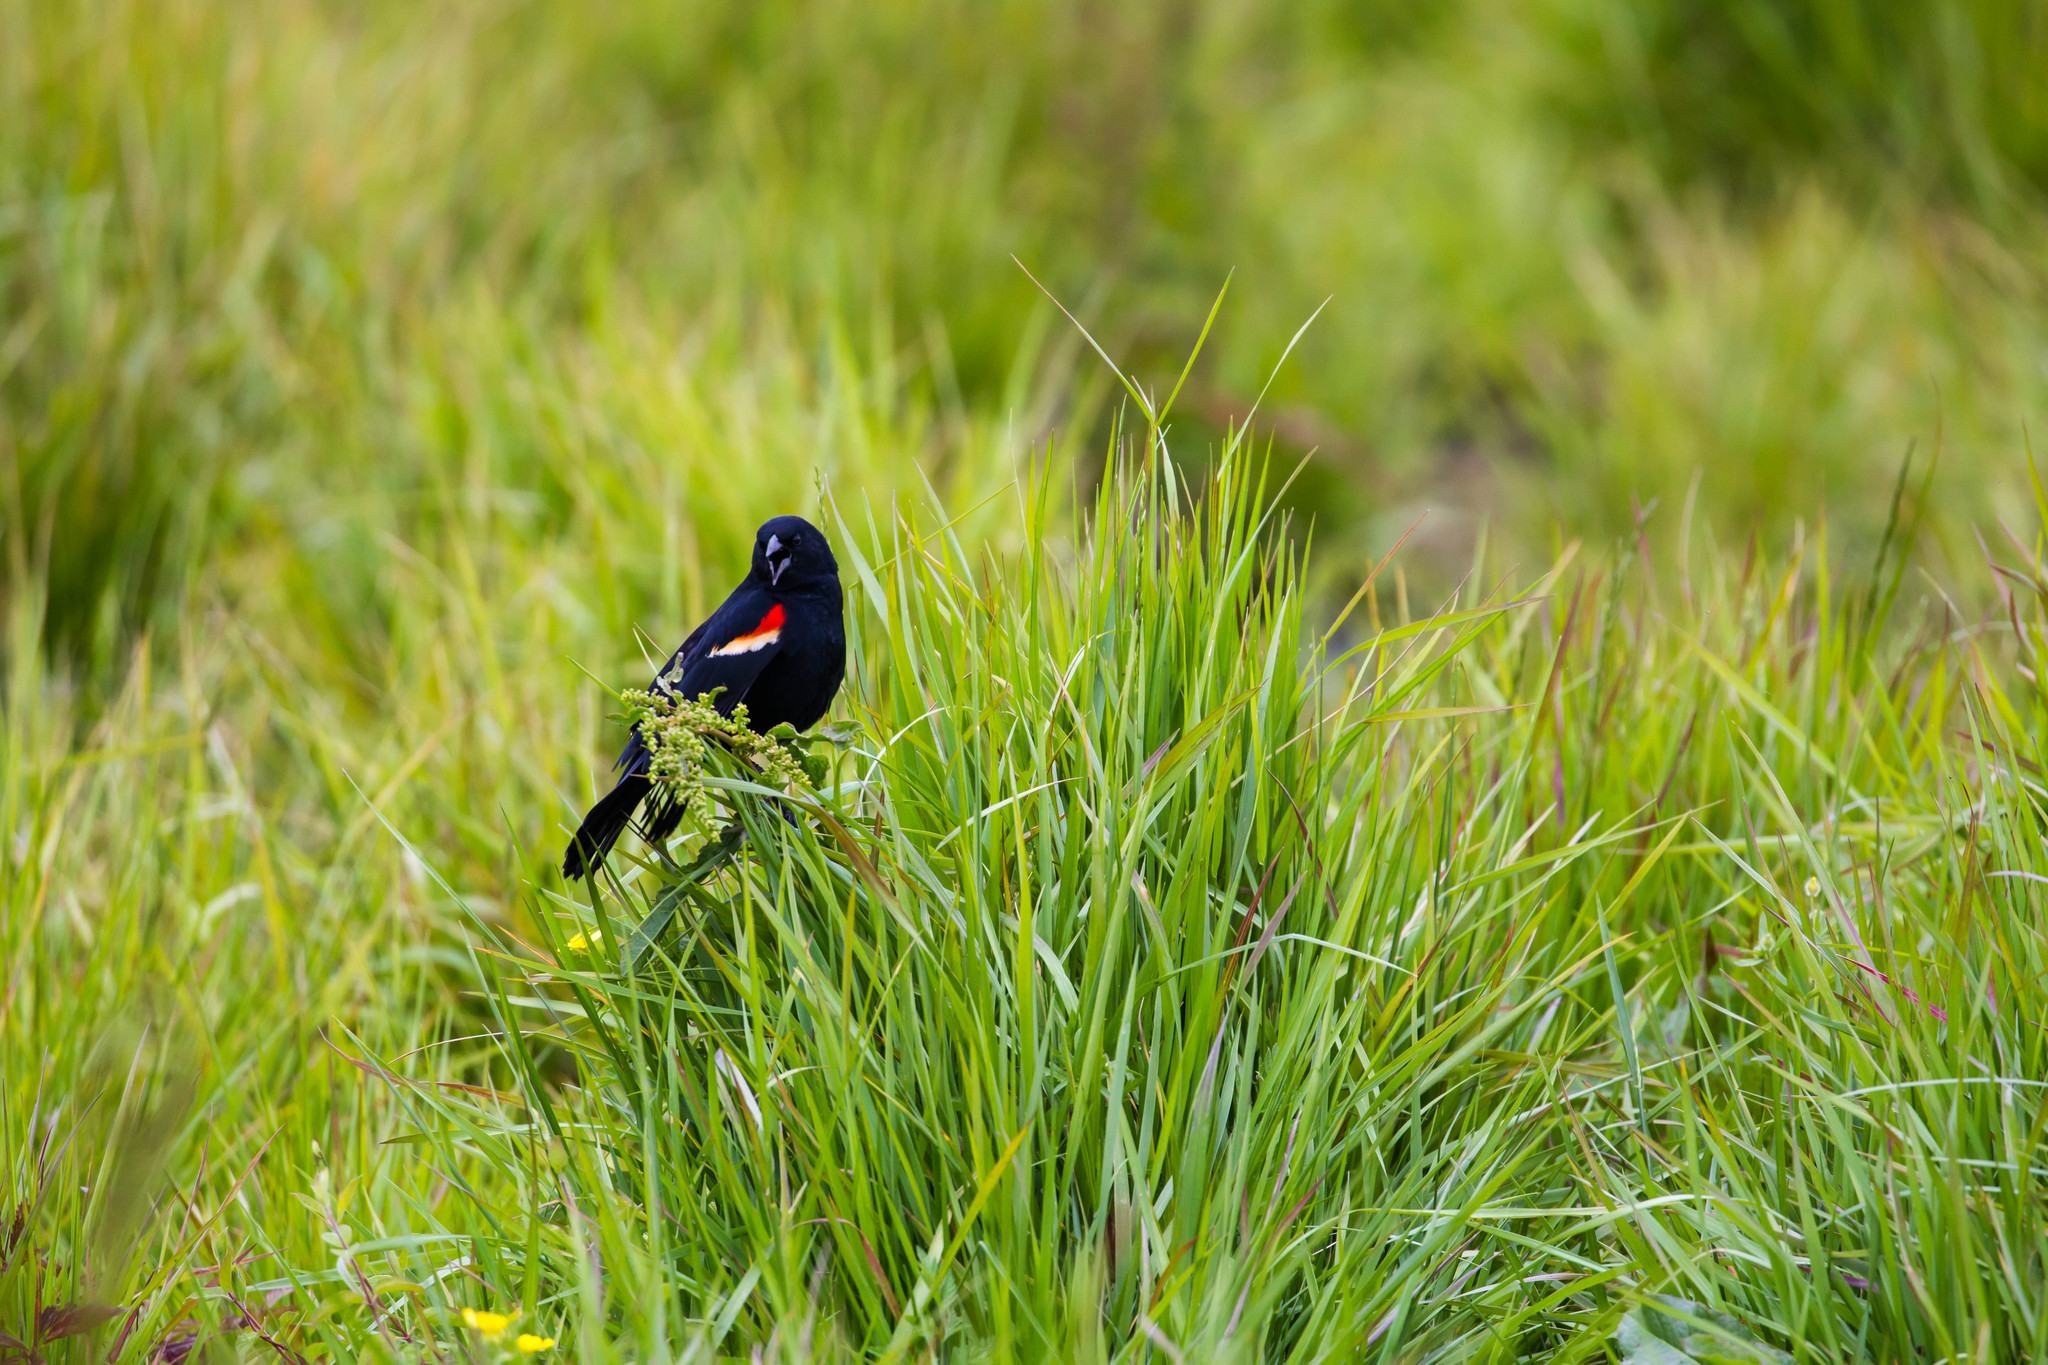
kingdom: Animalia
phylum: Chordata
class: Aves
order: Passeriformes
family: Icteridae
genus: Agelaius
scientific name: Agelaius phoeniceus
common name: Red-winged blackbird
